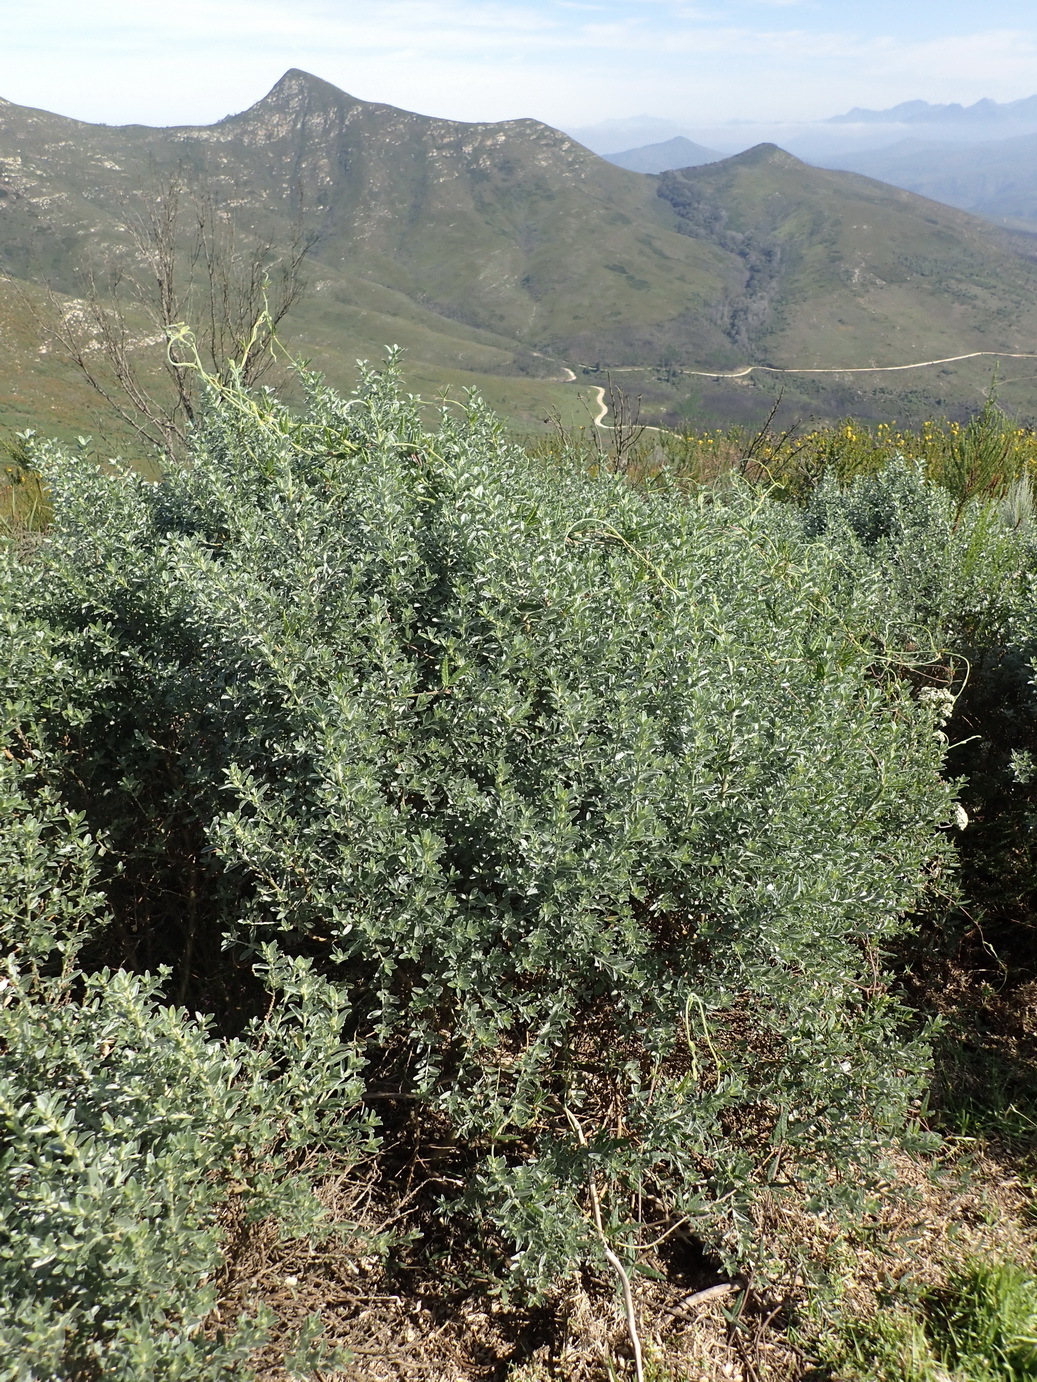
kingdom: Plantae
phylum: Tracheophyta
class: Magnoliopsida
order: Fabales
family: Fabaceae
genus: Amphithalea
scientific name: Amphithalea fourcadei
